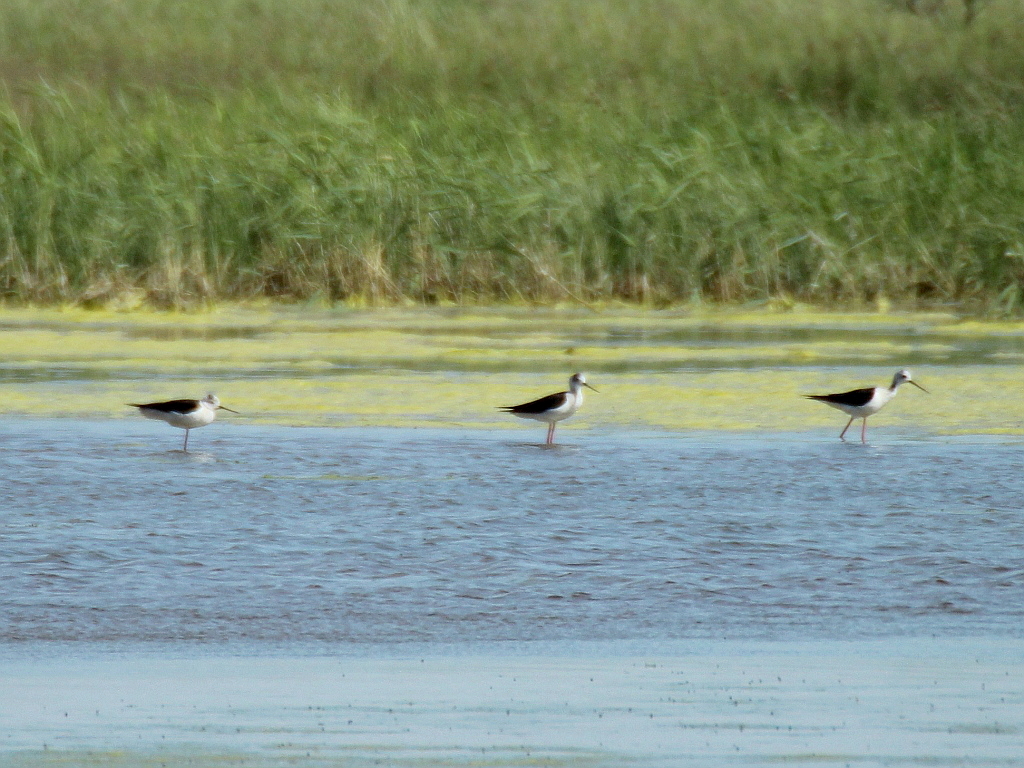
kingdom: Animalia
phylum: Chordata
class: Aves
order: Charadriiformes
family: Recurvirostridae
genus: Himantopus
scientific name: Himantopus himantopus
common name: Black-winged stilt
